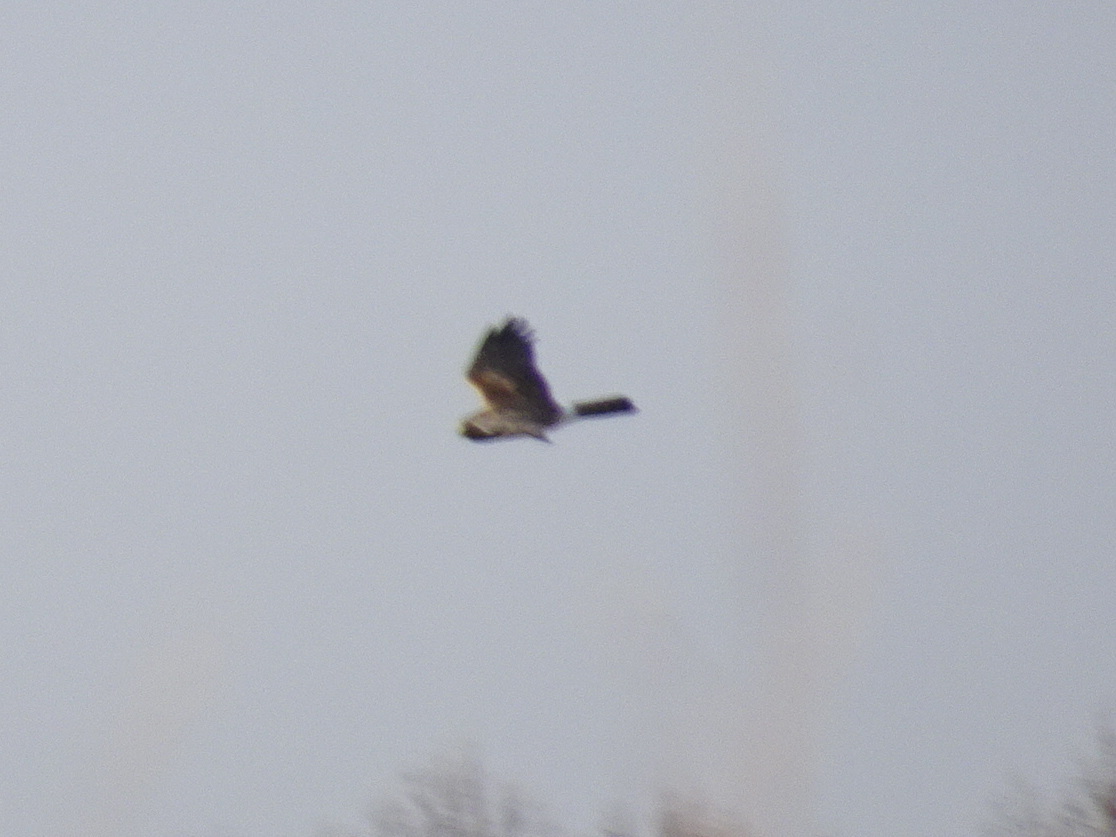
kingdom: Animalia
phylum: Chordata
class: Aves
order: Accipitriformes
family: Accipitridae
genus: Circus
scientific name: Circus cyaneus
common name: Hen harrier
